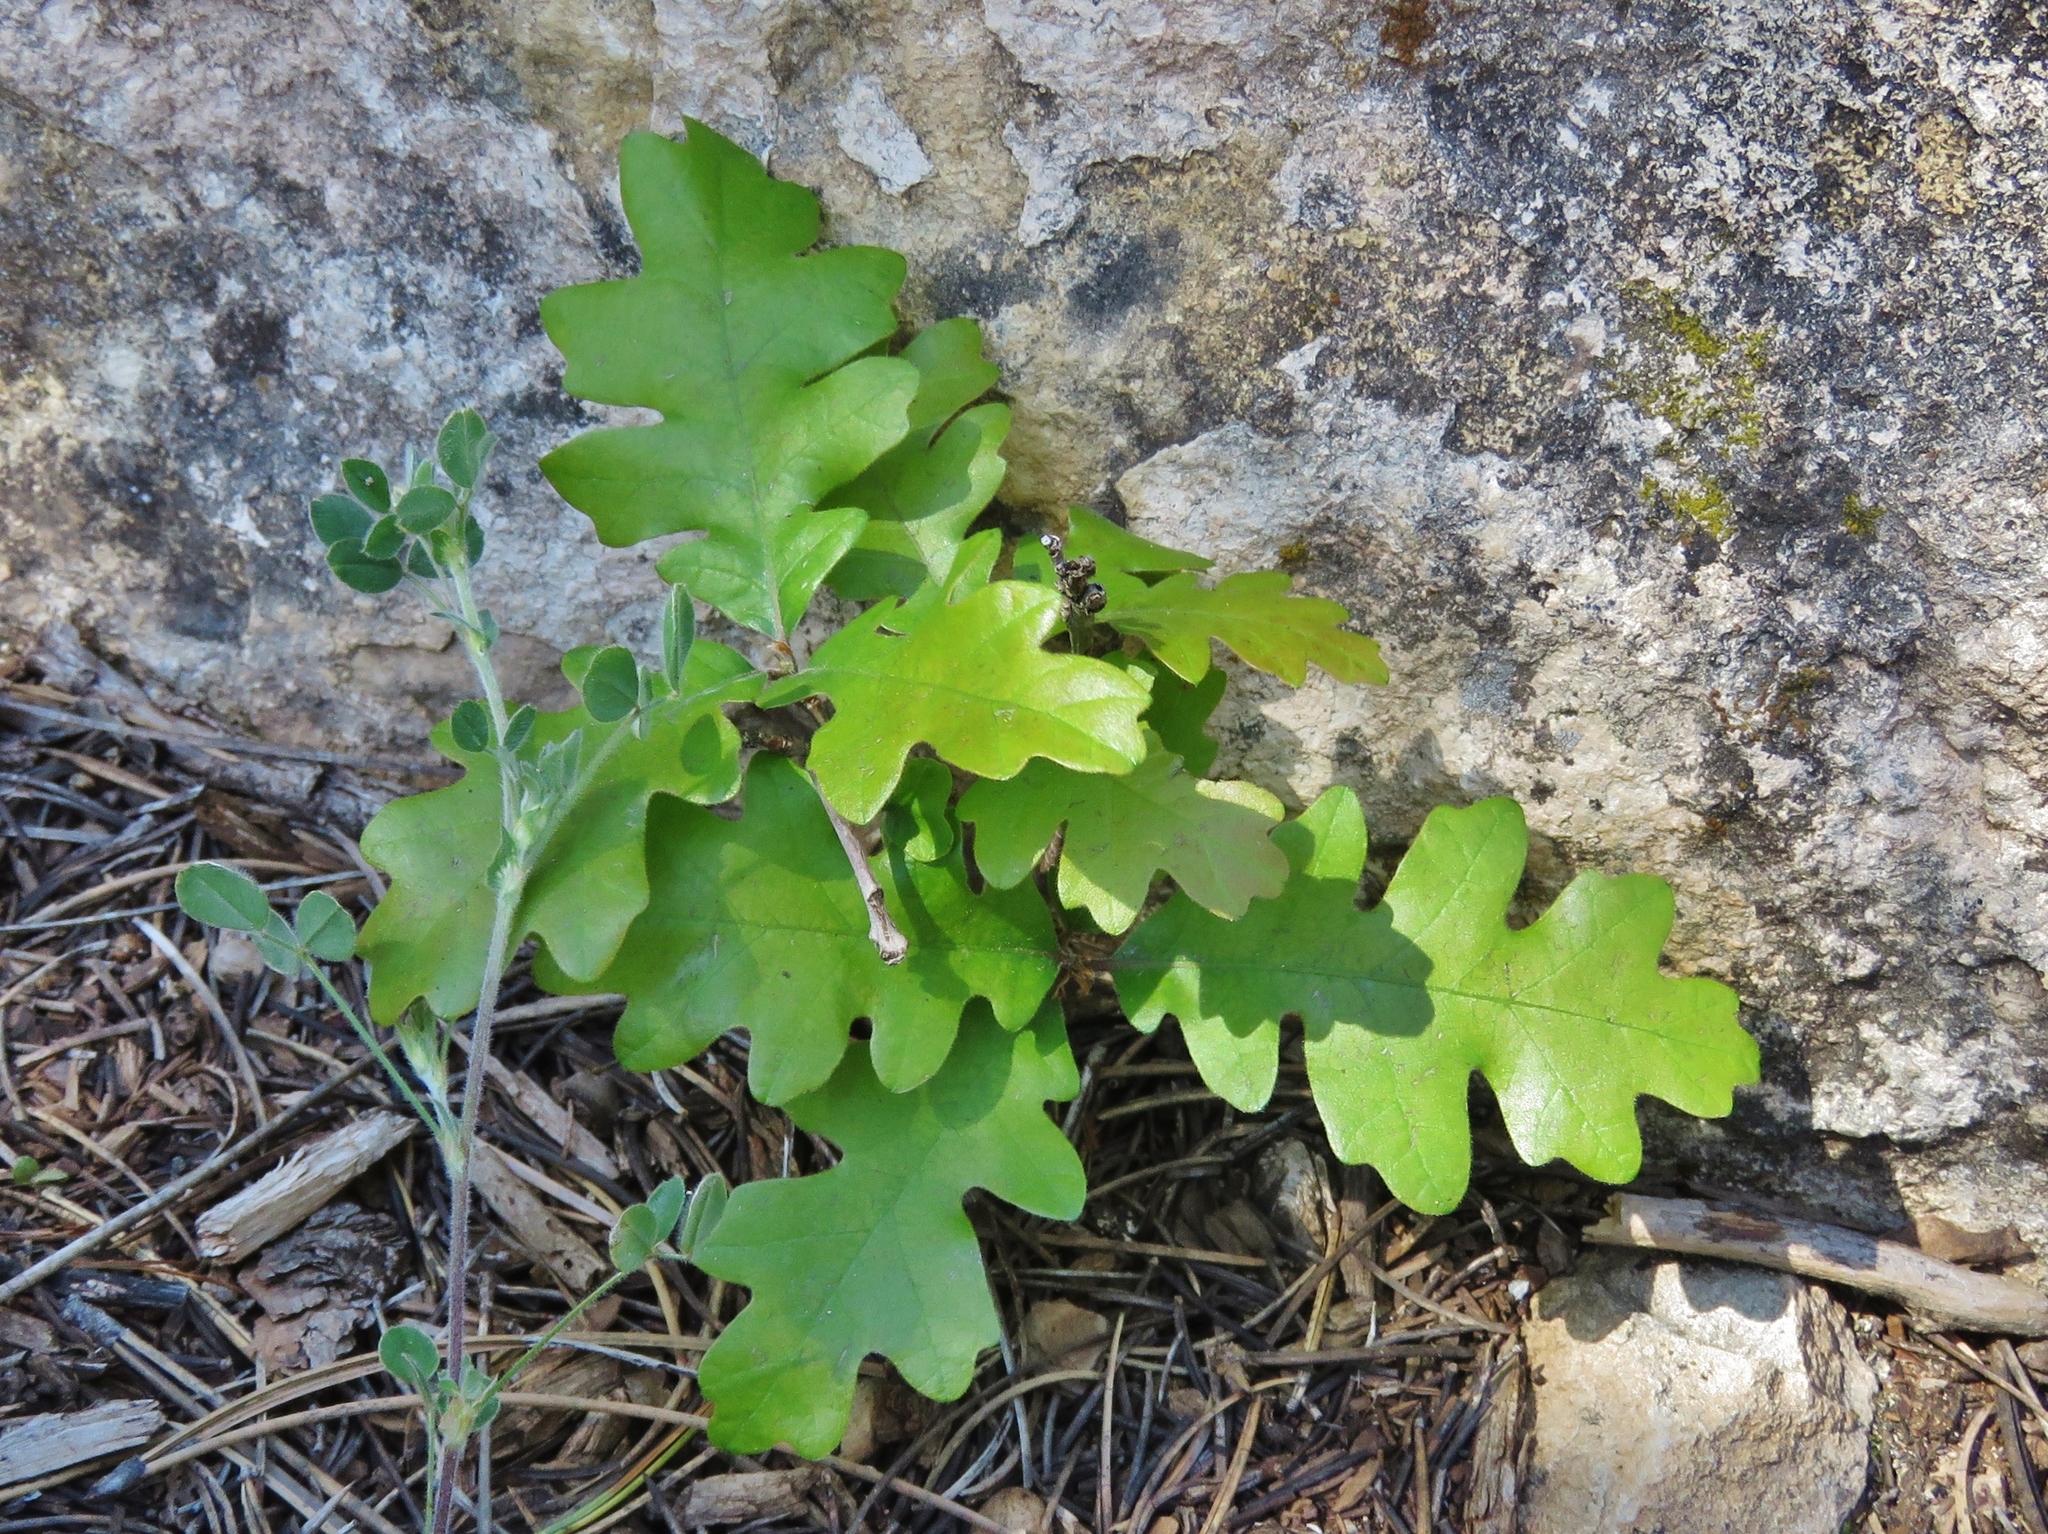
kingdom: Plantae
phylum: Tracheophyta
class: Magnoliopsida
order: Fagales
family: Fagaceae
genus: Quercus
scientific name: Quercus gambelii
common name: Gambel oak
